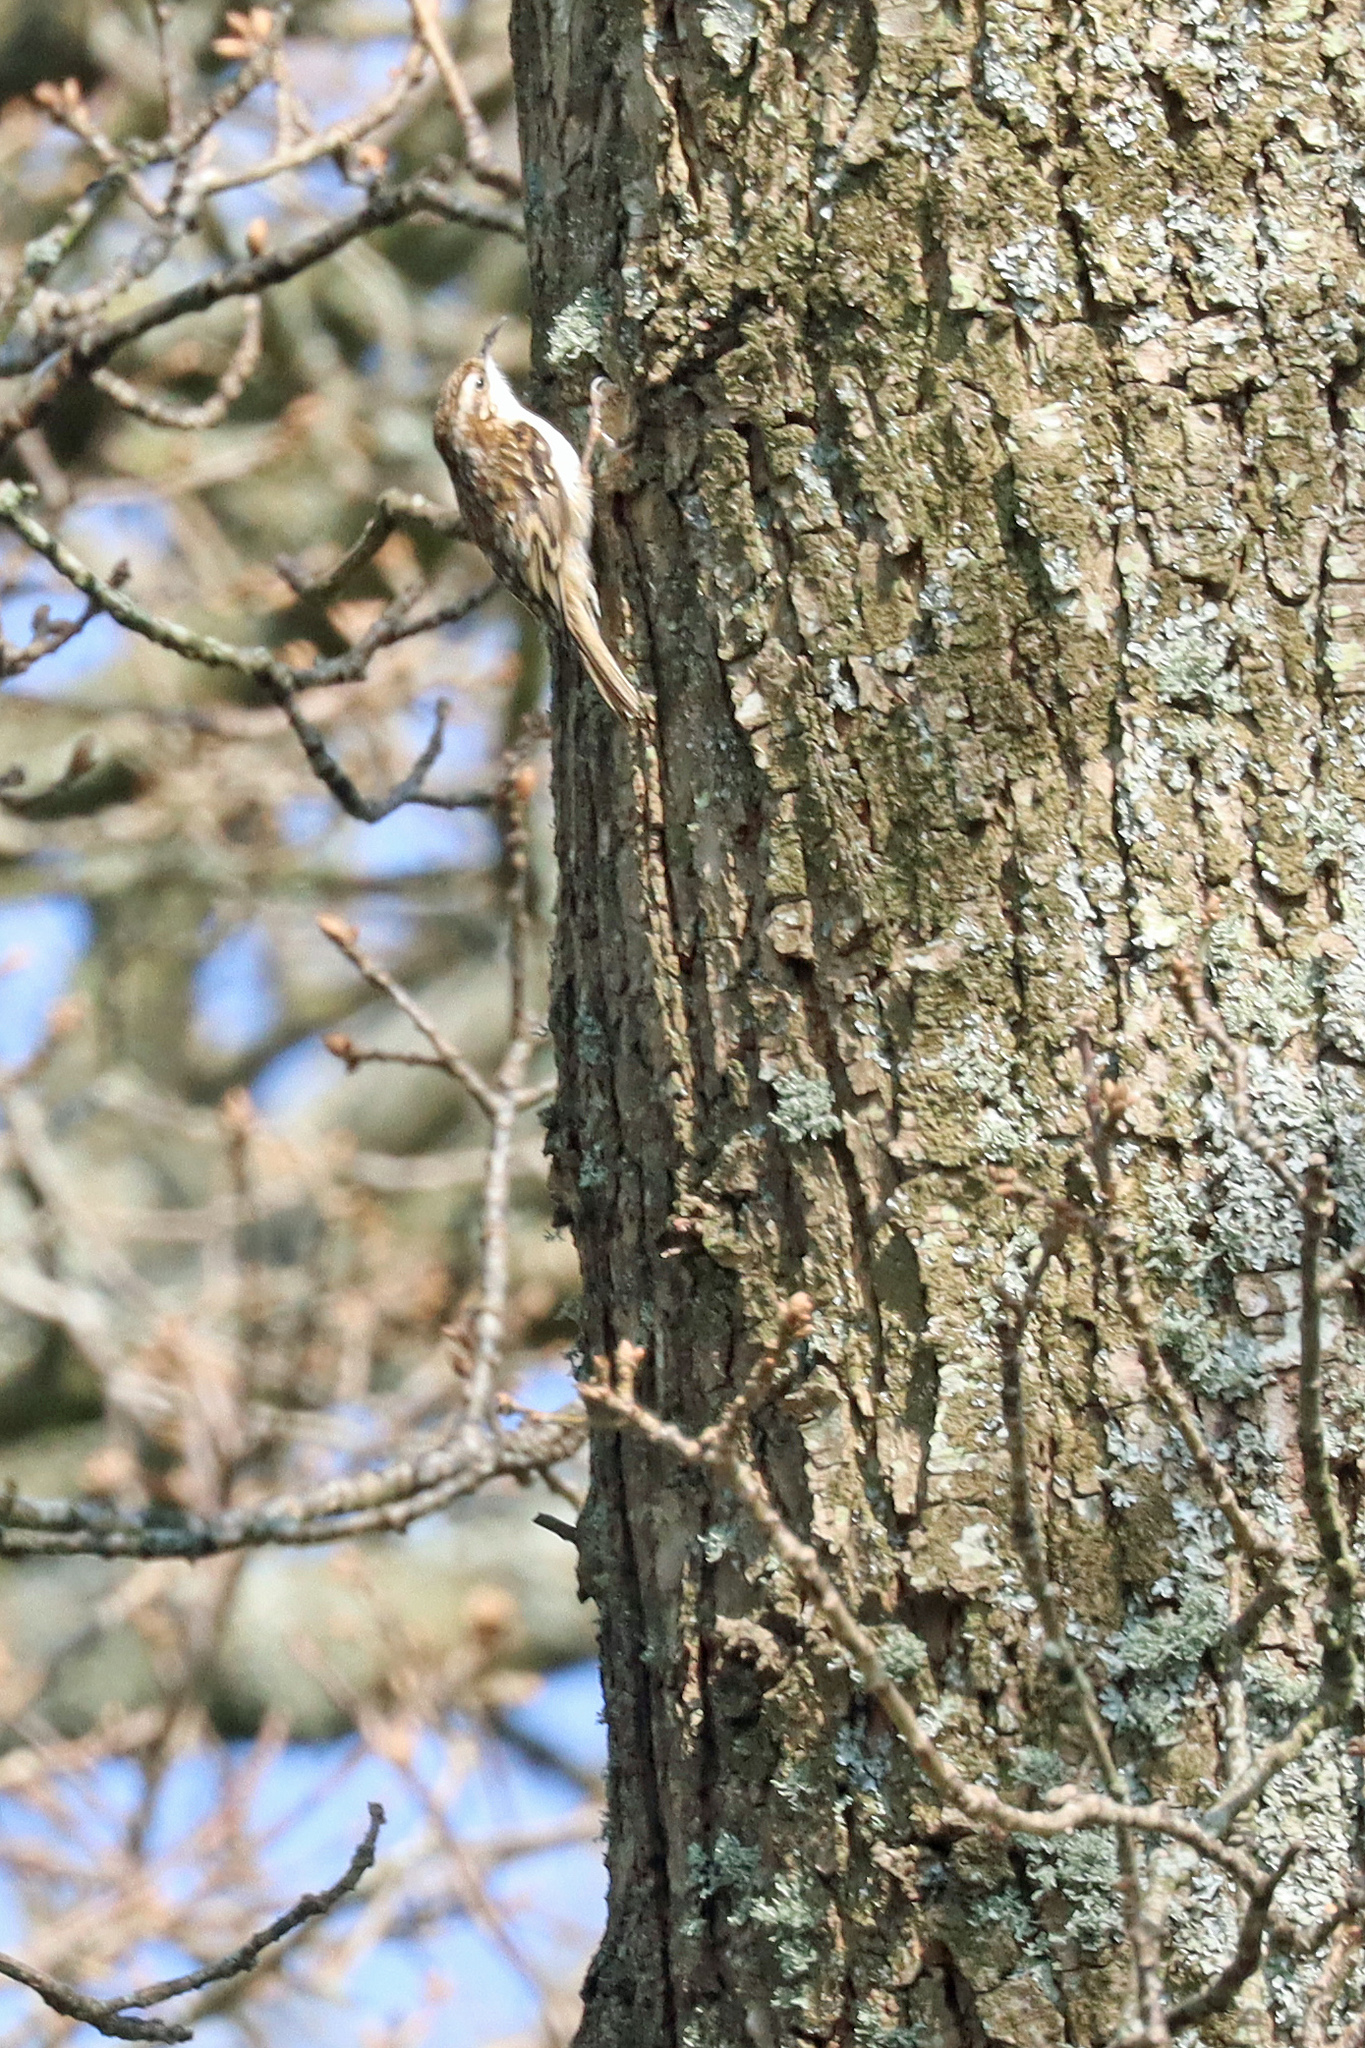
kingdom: Animalia
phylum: Chordata
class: Aves
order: Passeriformes
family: Certhiidae
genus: Certhia
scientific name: Certhia familiaris
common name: Eurasian treecreeper
